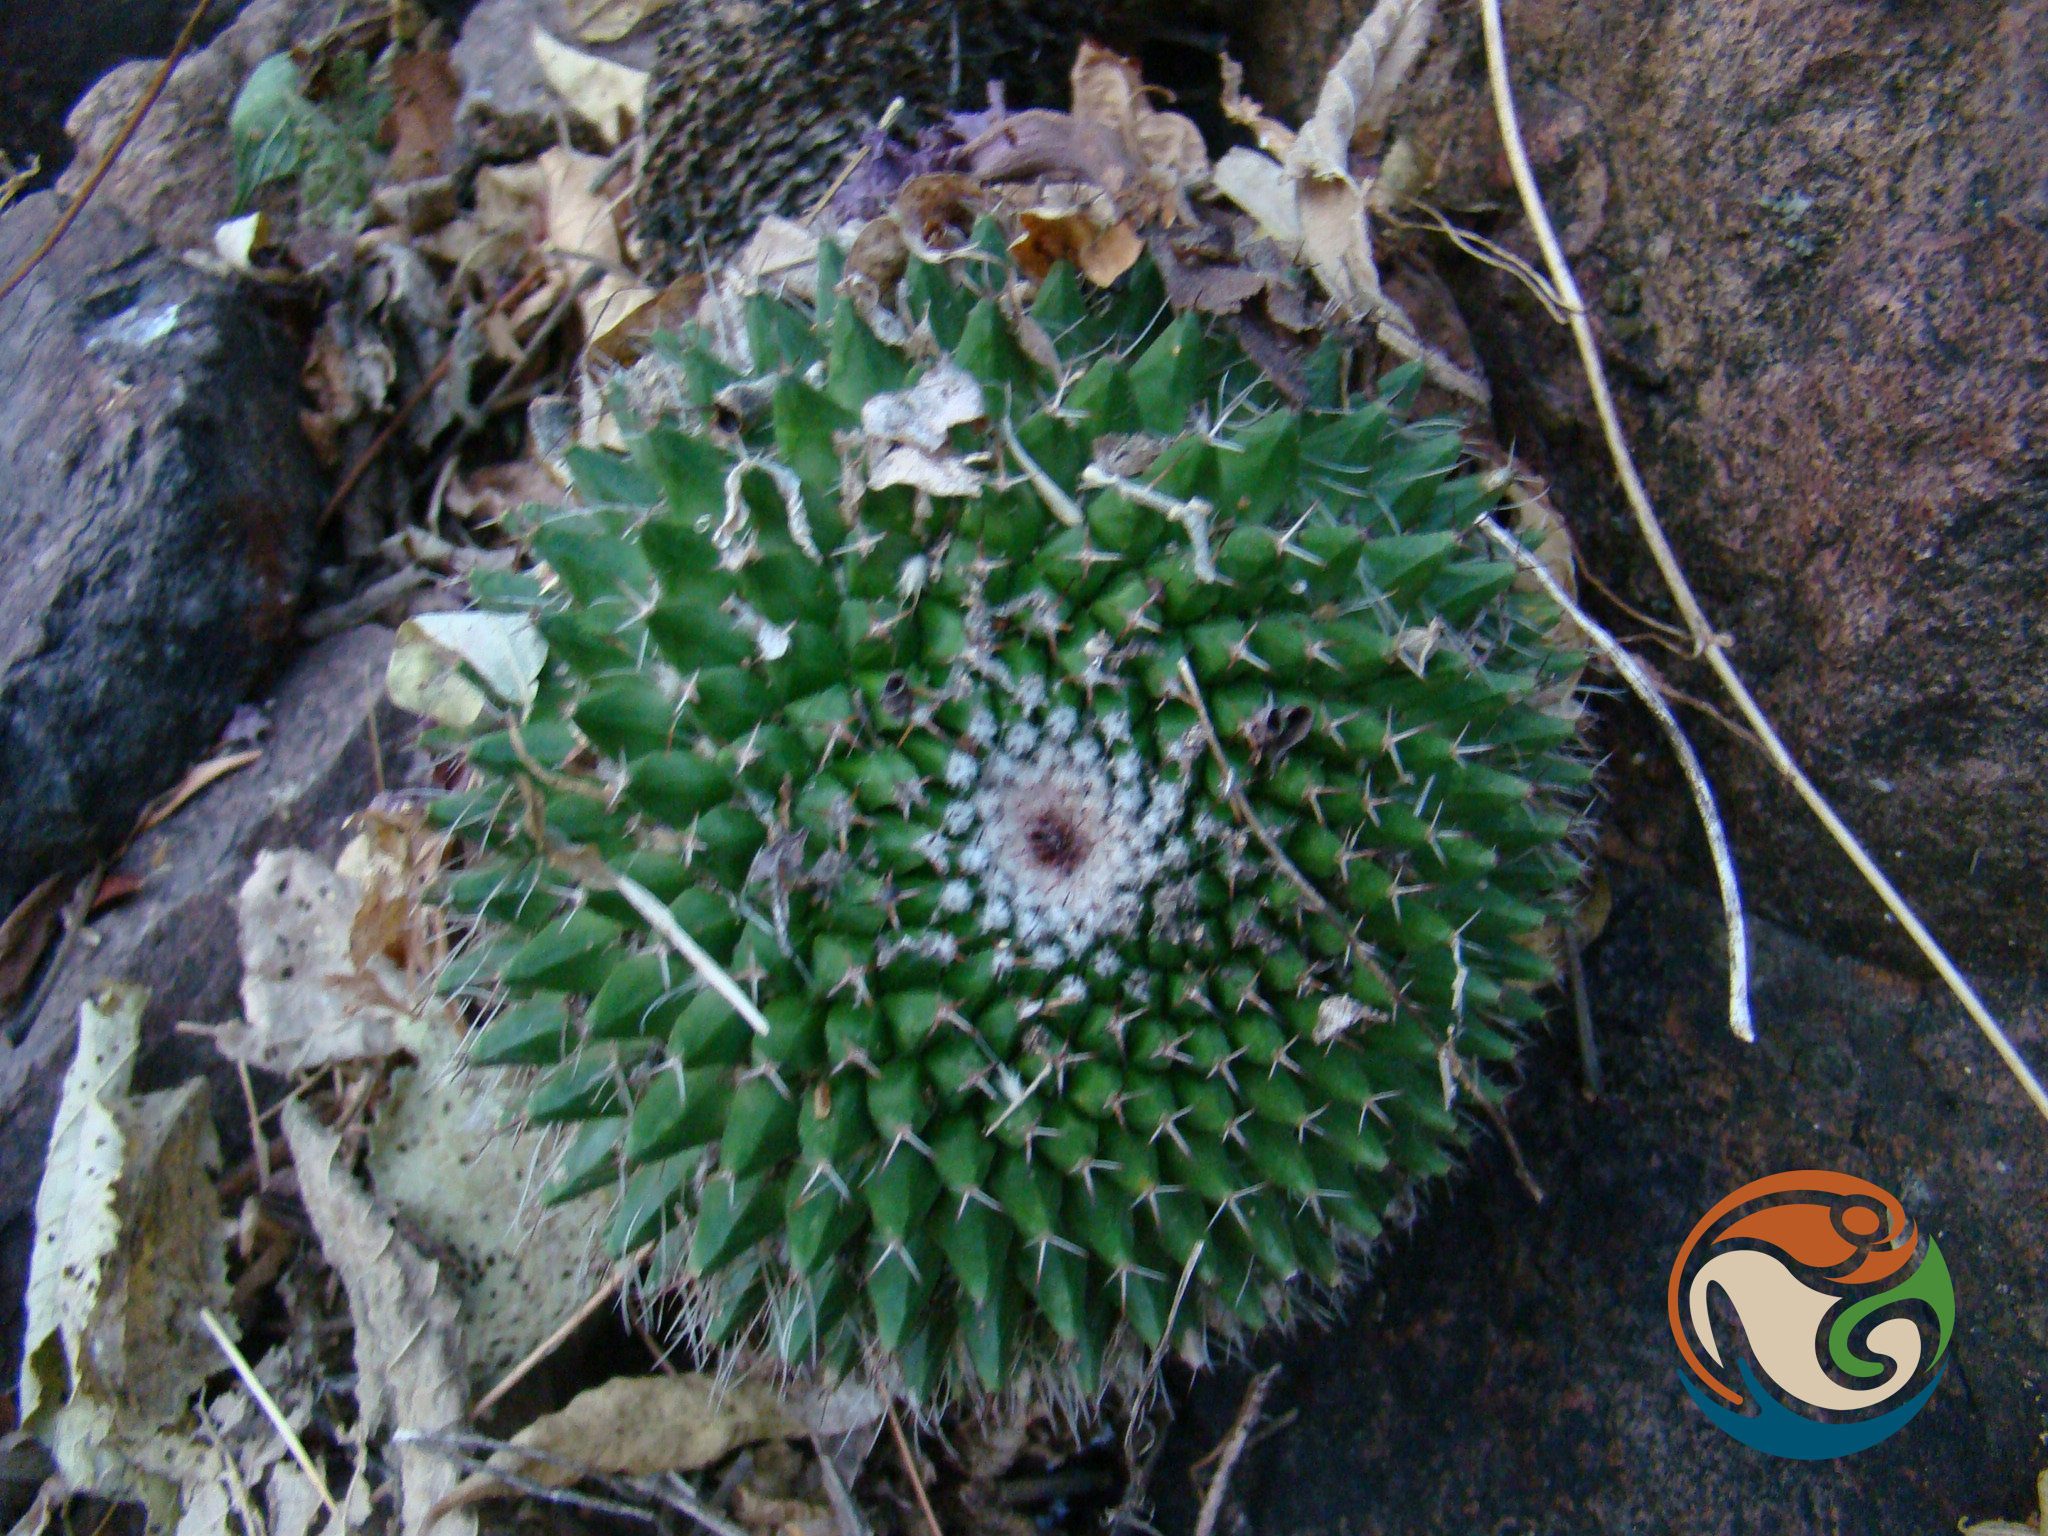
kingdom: Plantae
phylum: Tracheophyta
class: Magnoliopsida
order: Caryophyllales
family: Cactaceae
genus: Mammillaria
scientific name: Mammillaria polyedra
